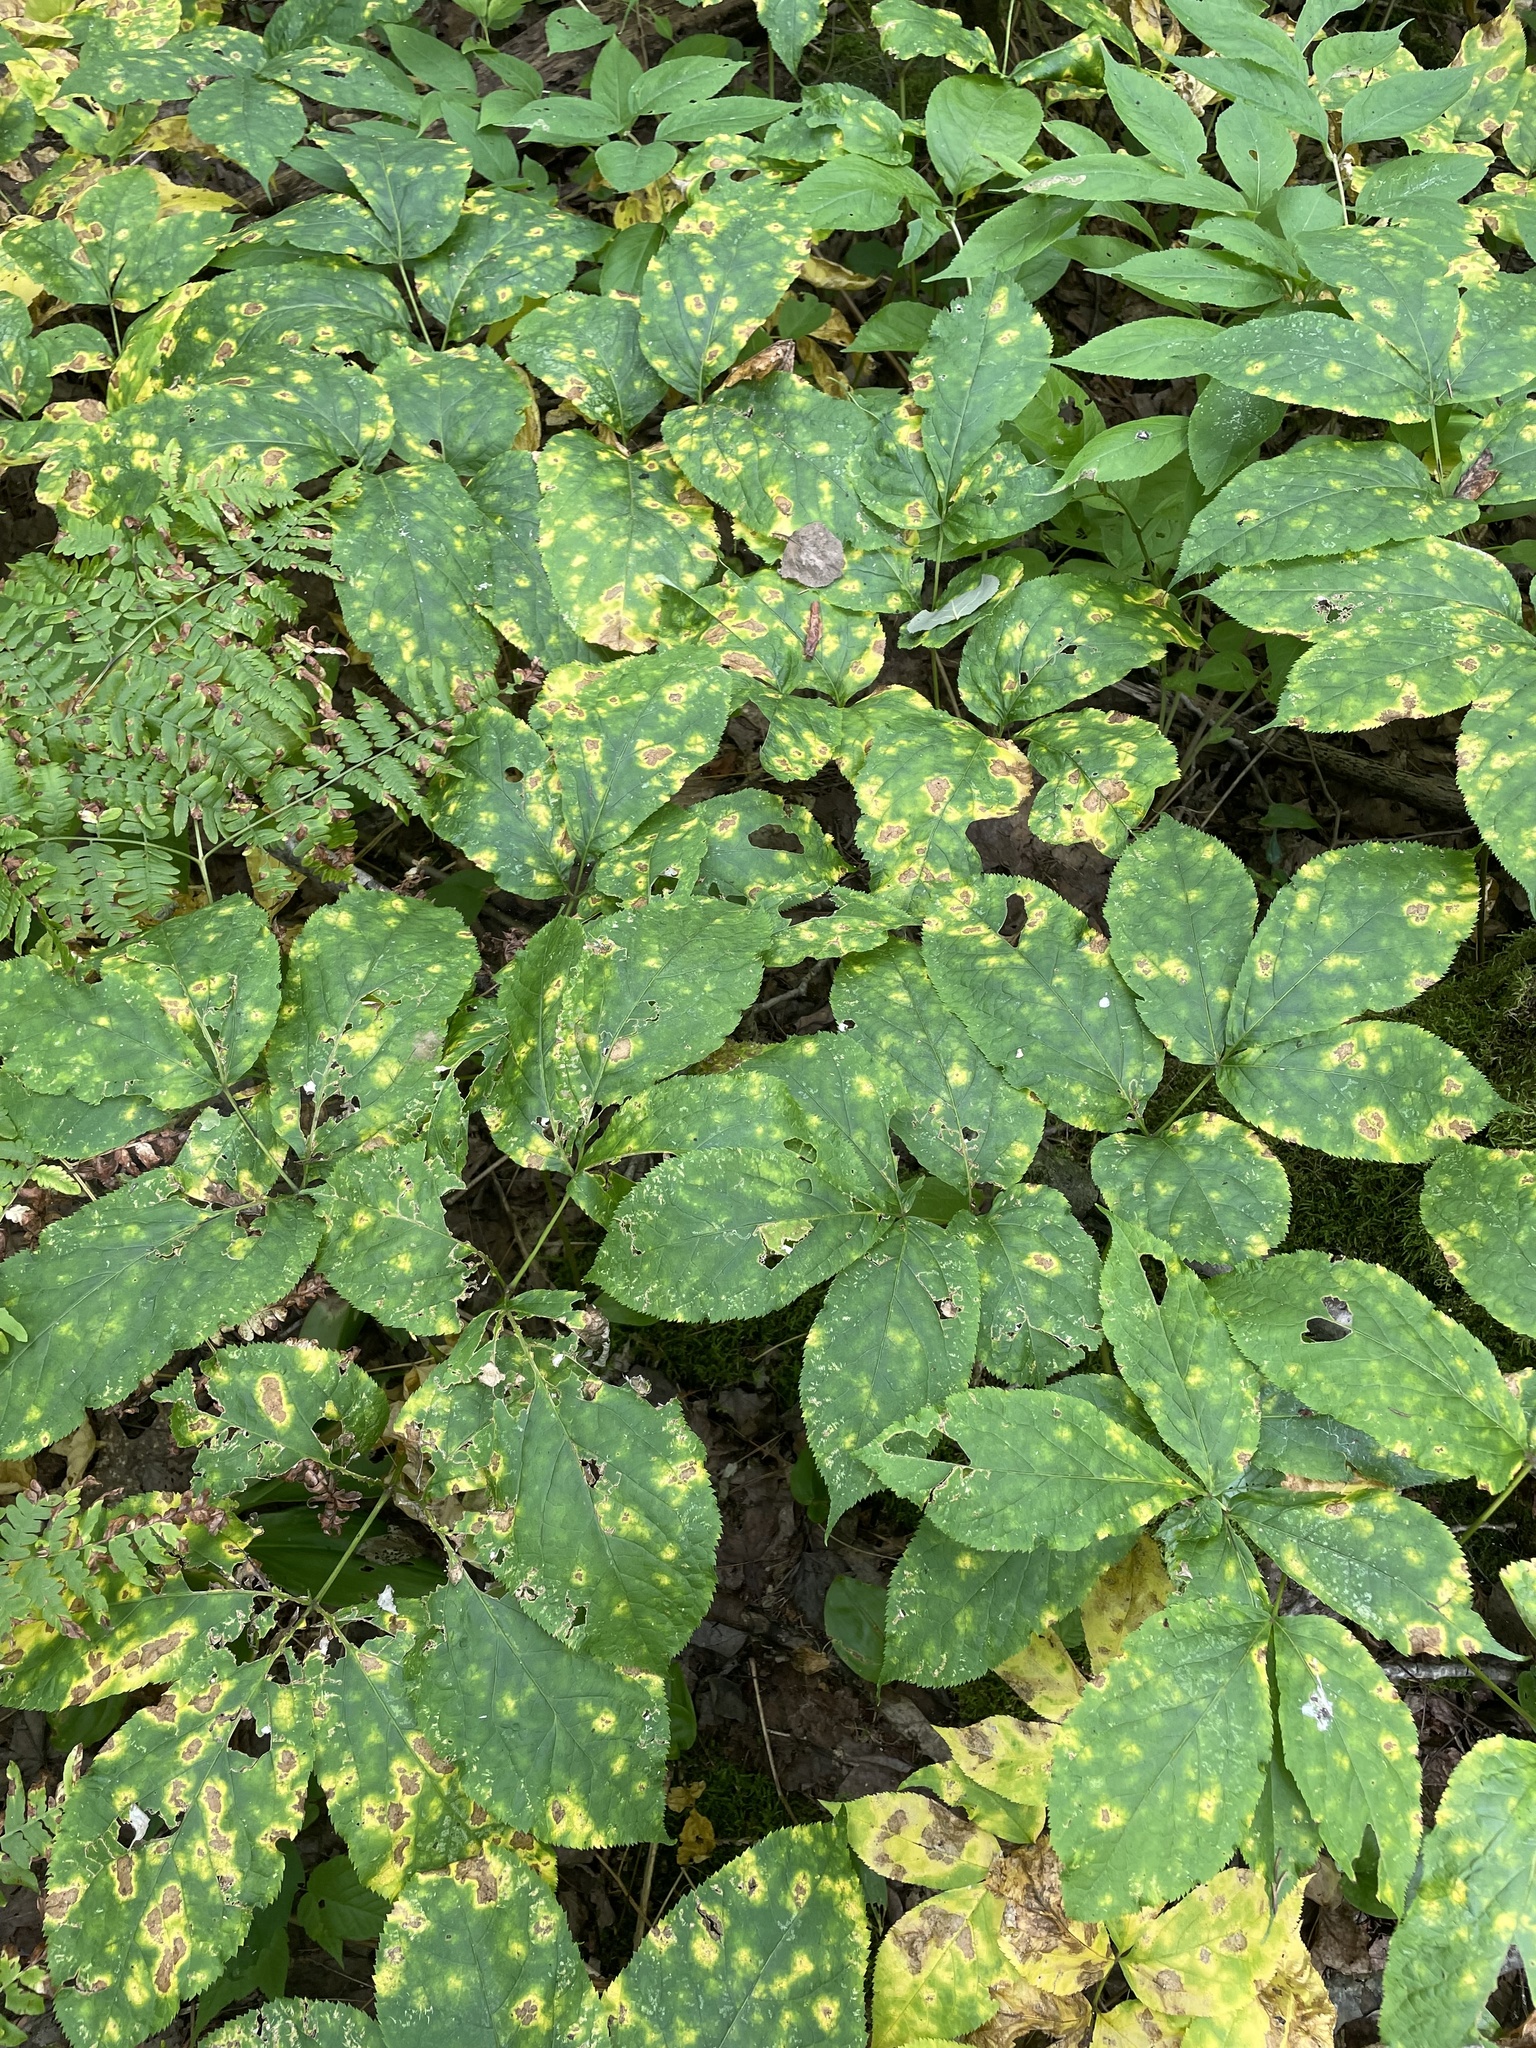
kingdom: Plantae
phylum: Tracheophyta
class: Magnoliopsida
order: Apiales
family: Araliaceae
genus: Aralia
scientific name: Aralia nudicaulis
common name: Wild sarsaparilla
